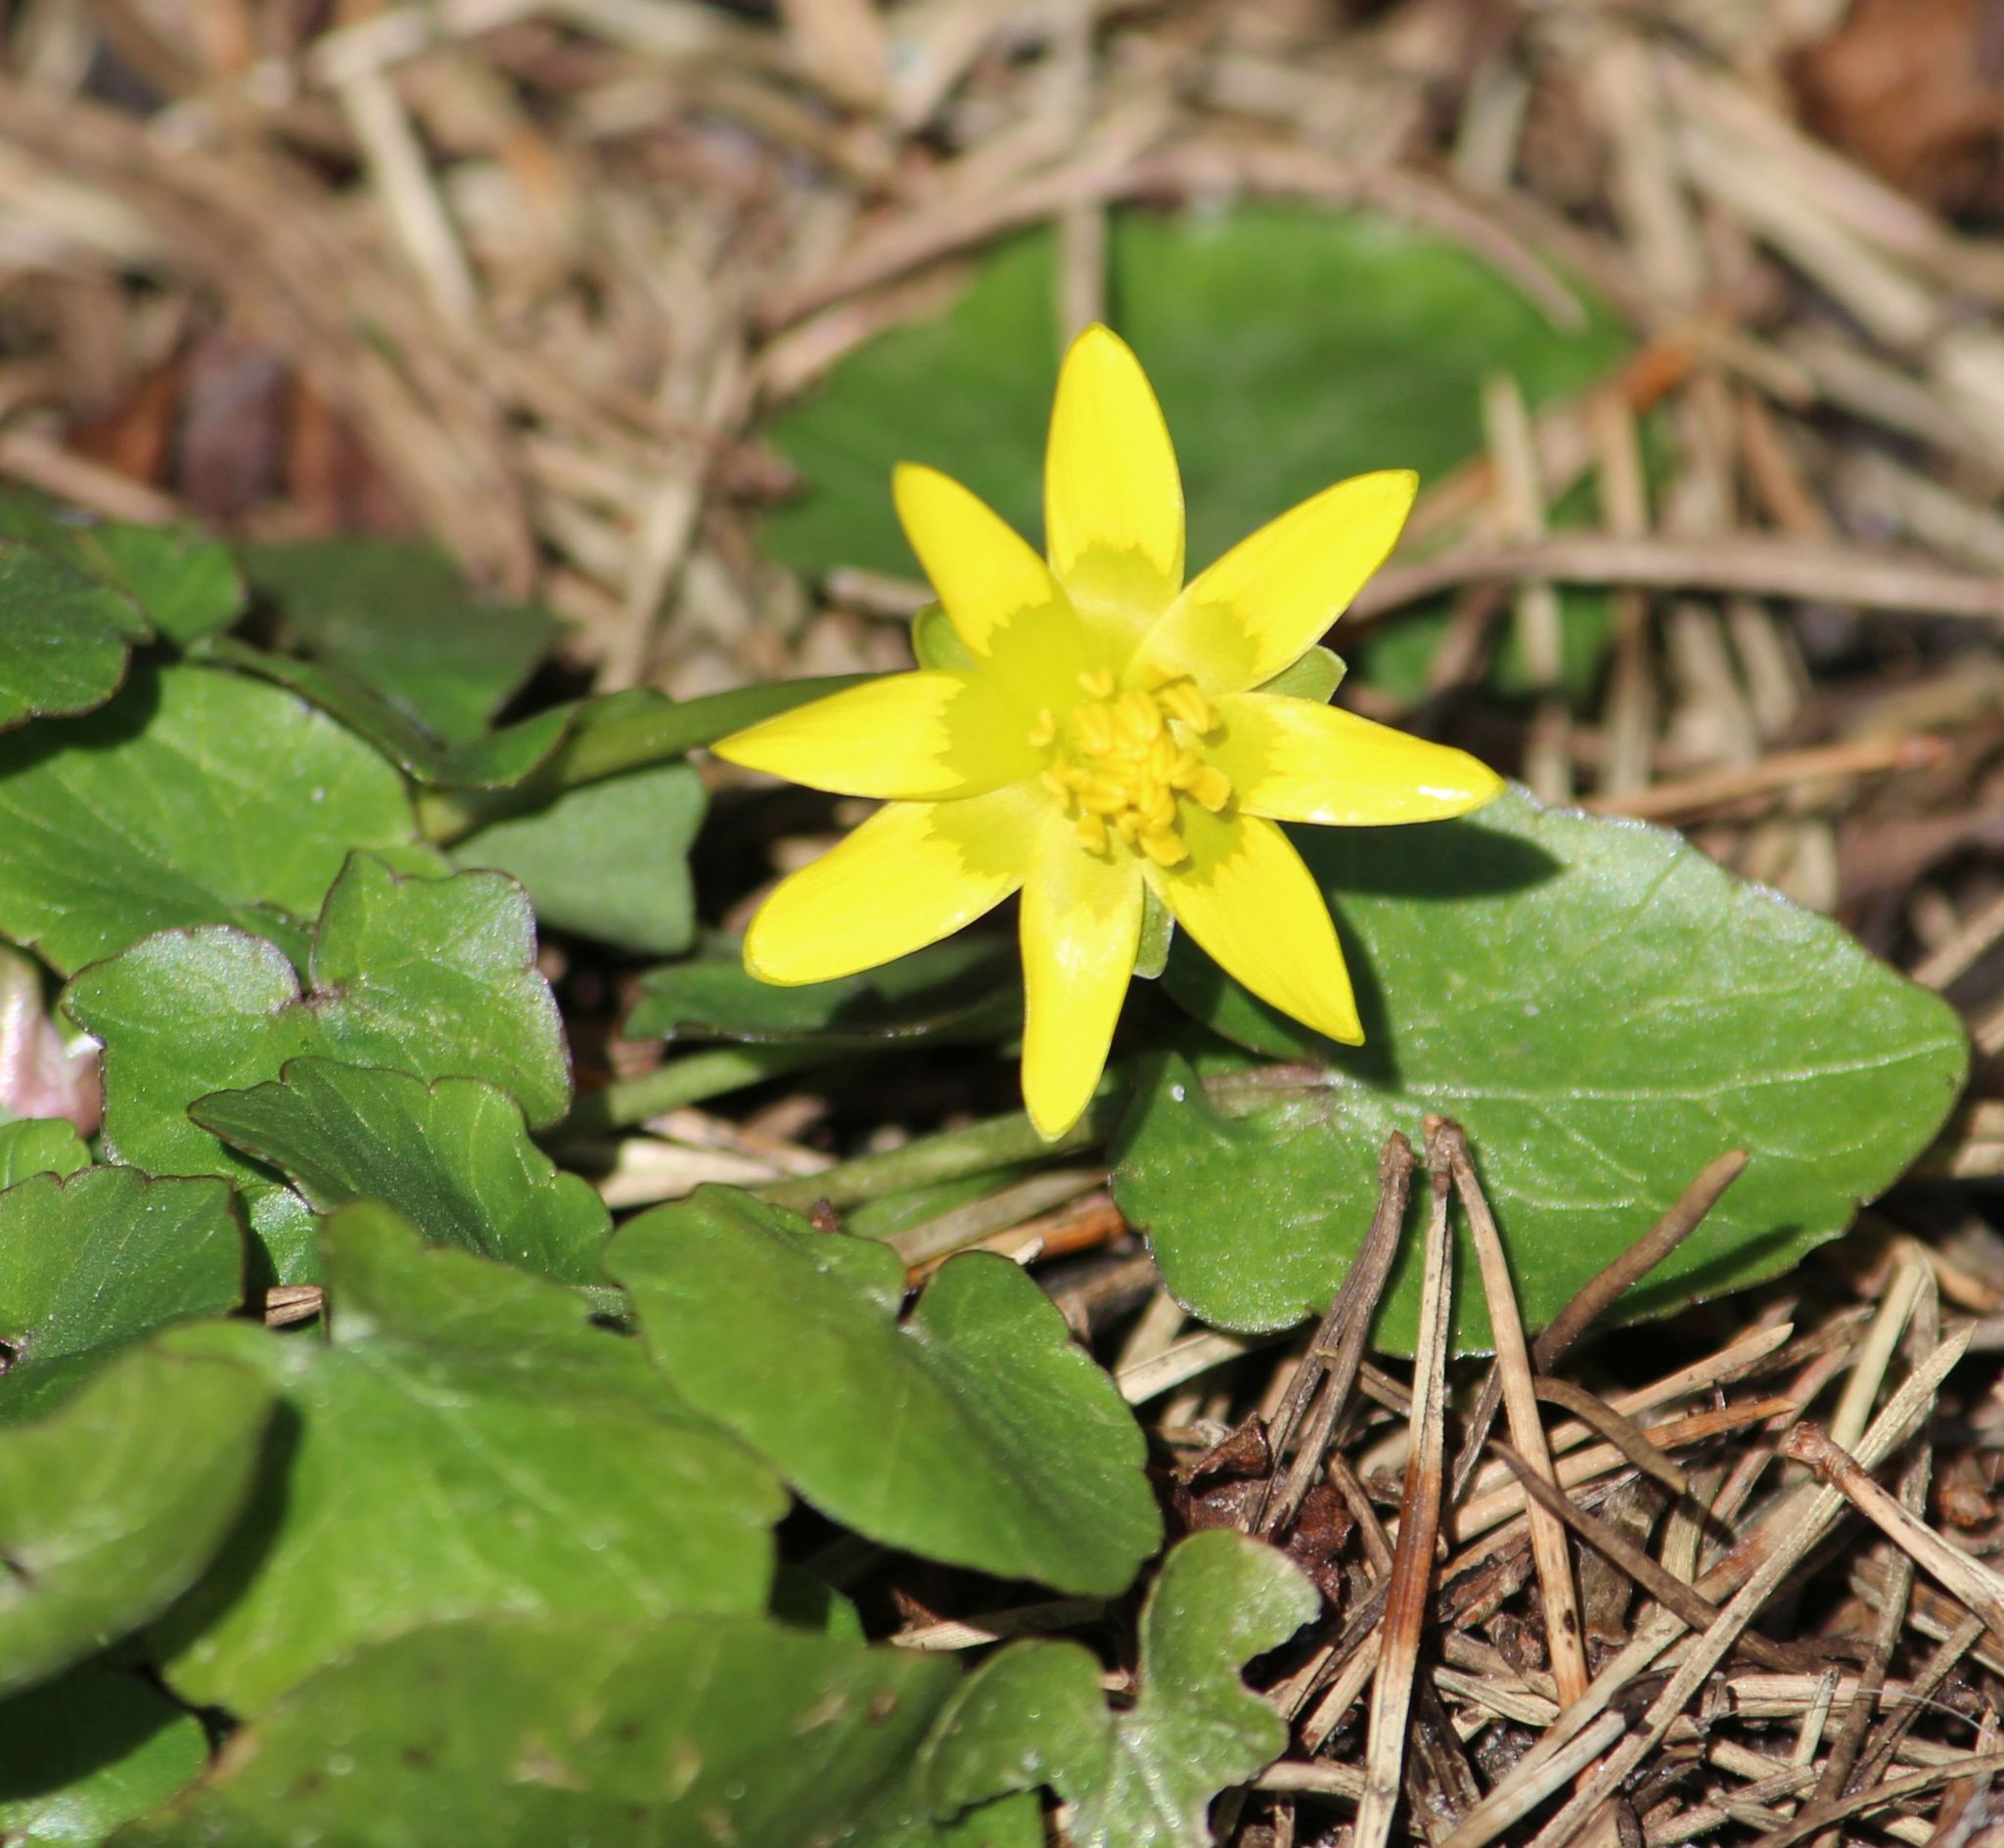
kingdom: Plantae
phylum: Tracheophyta
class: Magnoliopsida
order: Ranunculales
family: Ranunculaceae
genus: Ficaria
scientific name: Ficaria verna
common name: Lesser celandine
